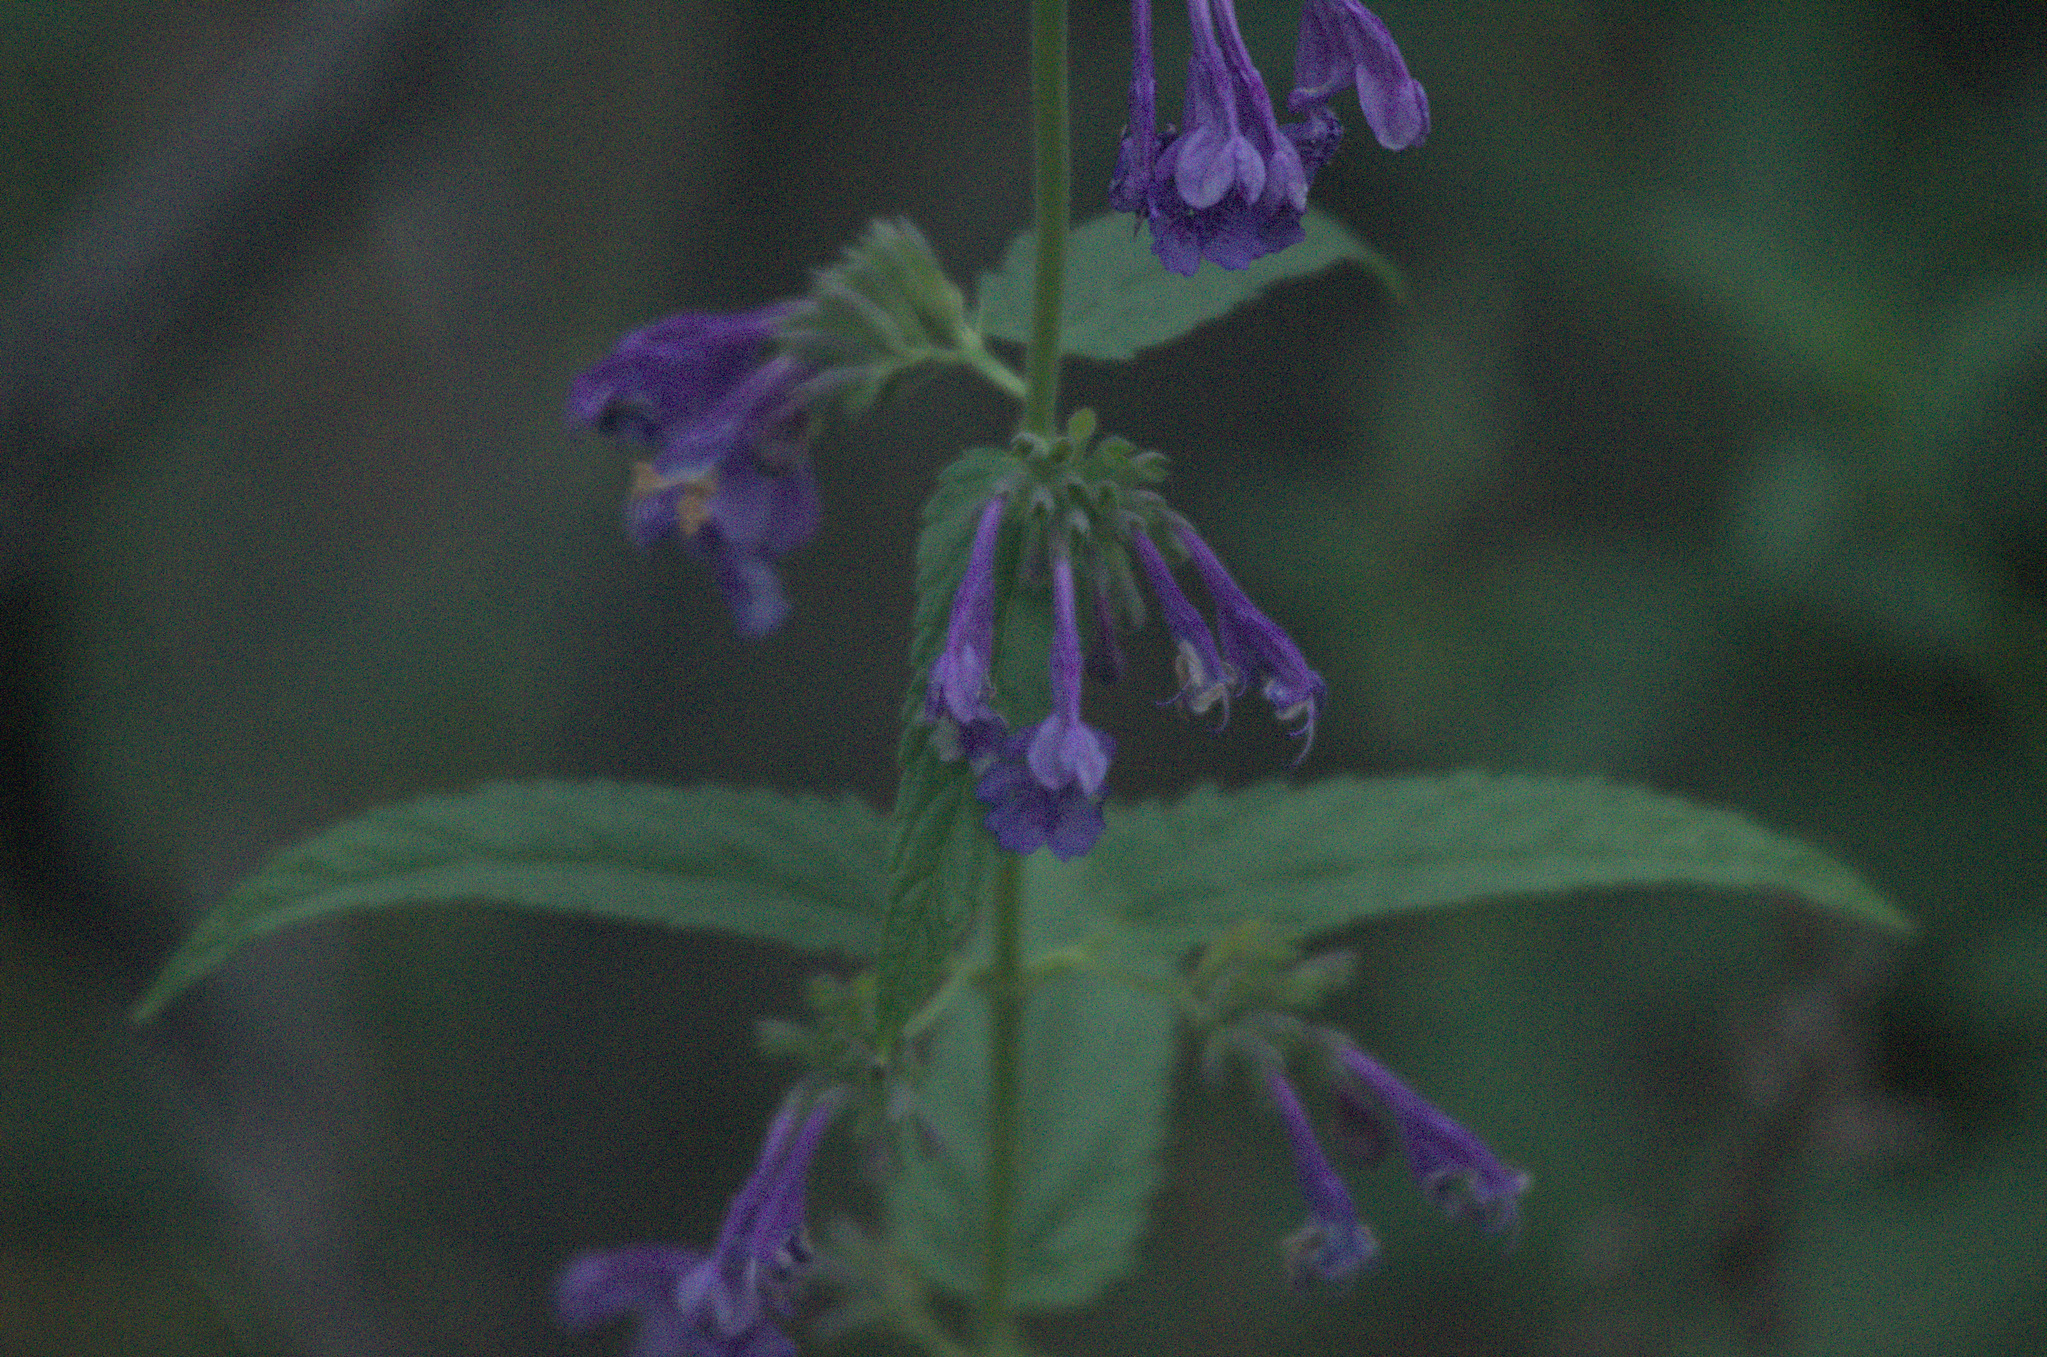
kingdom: Plantae
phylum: Tracheophyta
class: Magnoliopsida
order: Lamiales
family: Lamiaceae
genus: Nepeta
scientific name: Nepeta sibirica
